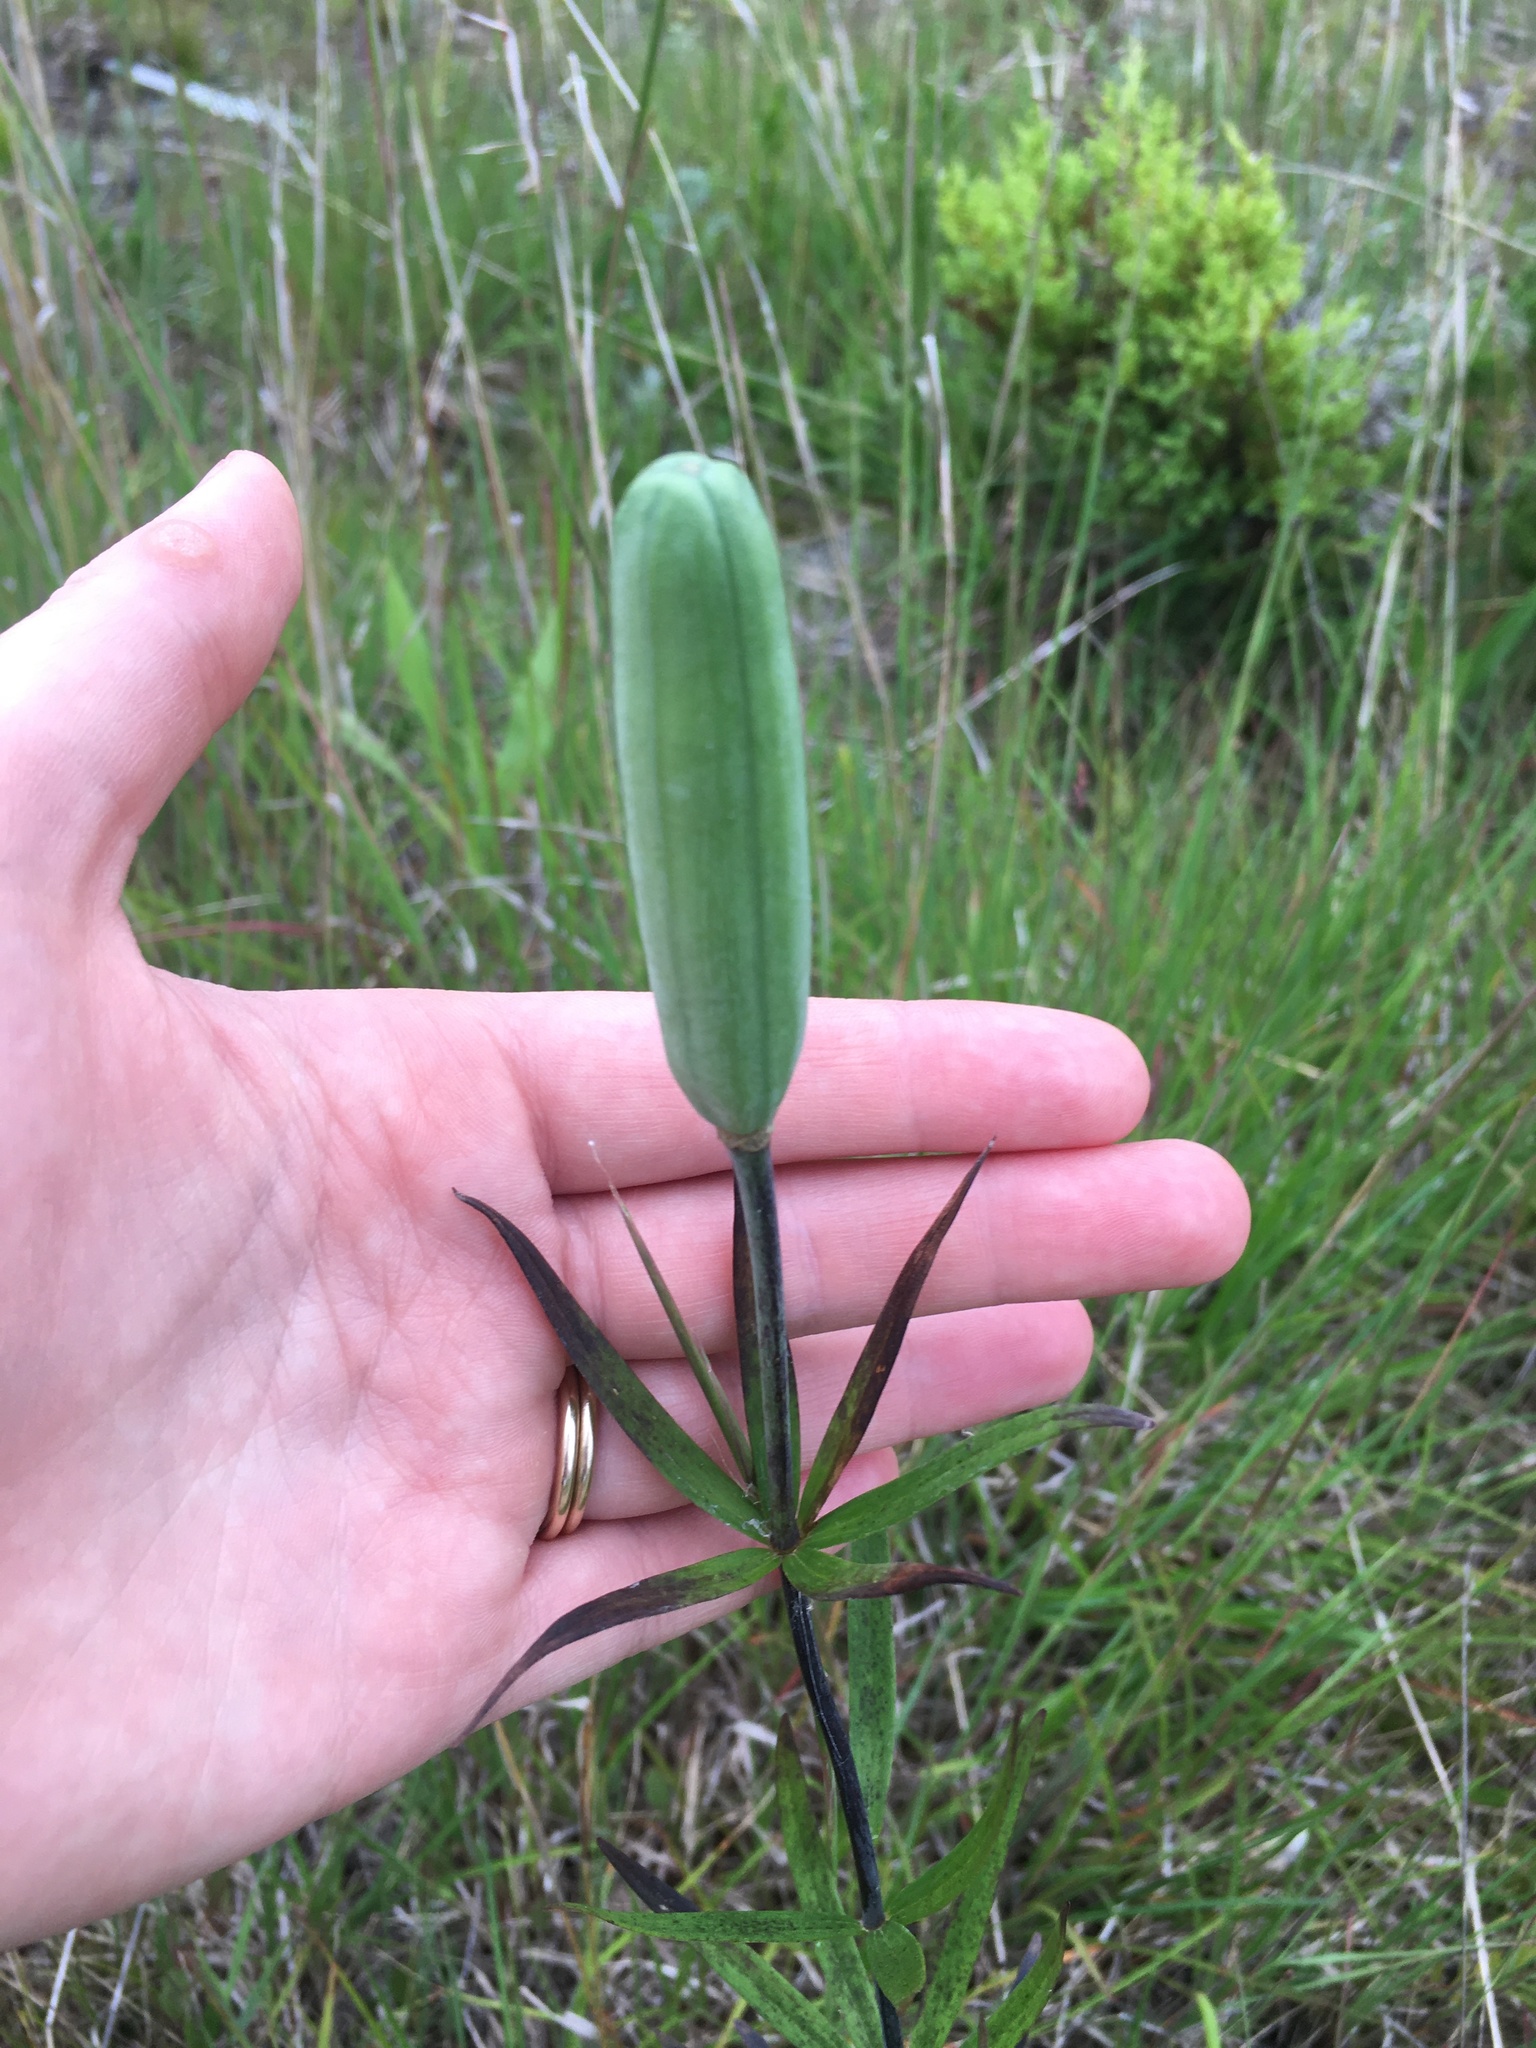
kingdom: Plantae
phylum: Tracheophyta
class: Liliopsida
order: Liliales
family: Liliaceae
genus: Lilium
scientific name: Lilium philadelphicum
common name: Red lily
